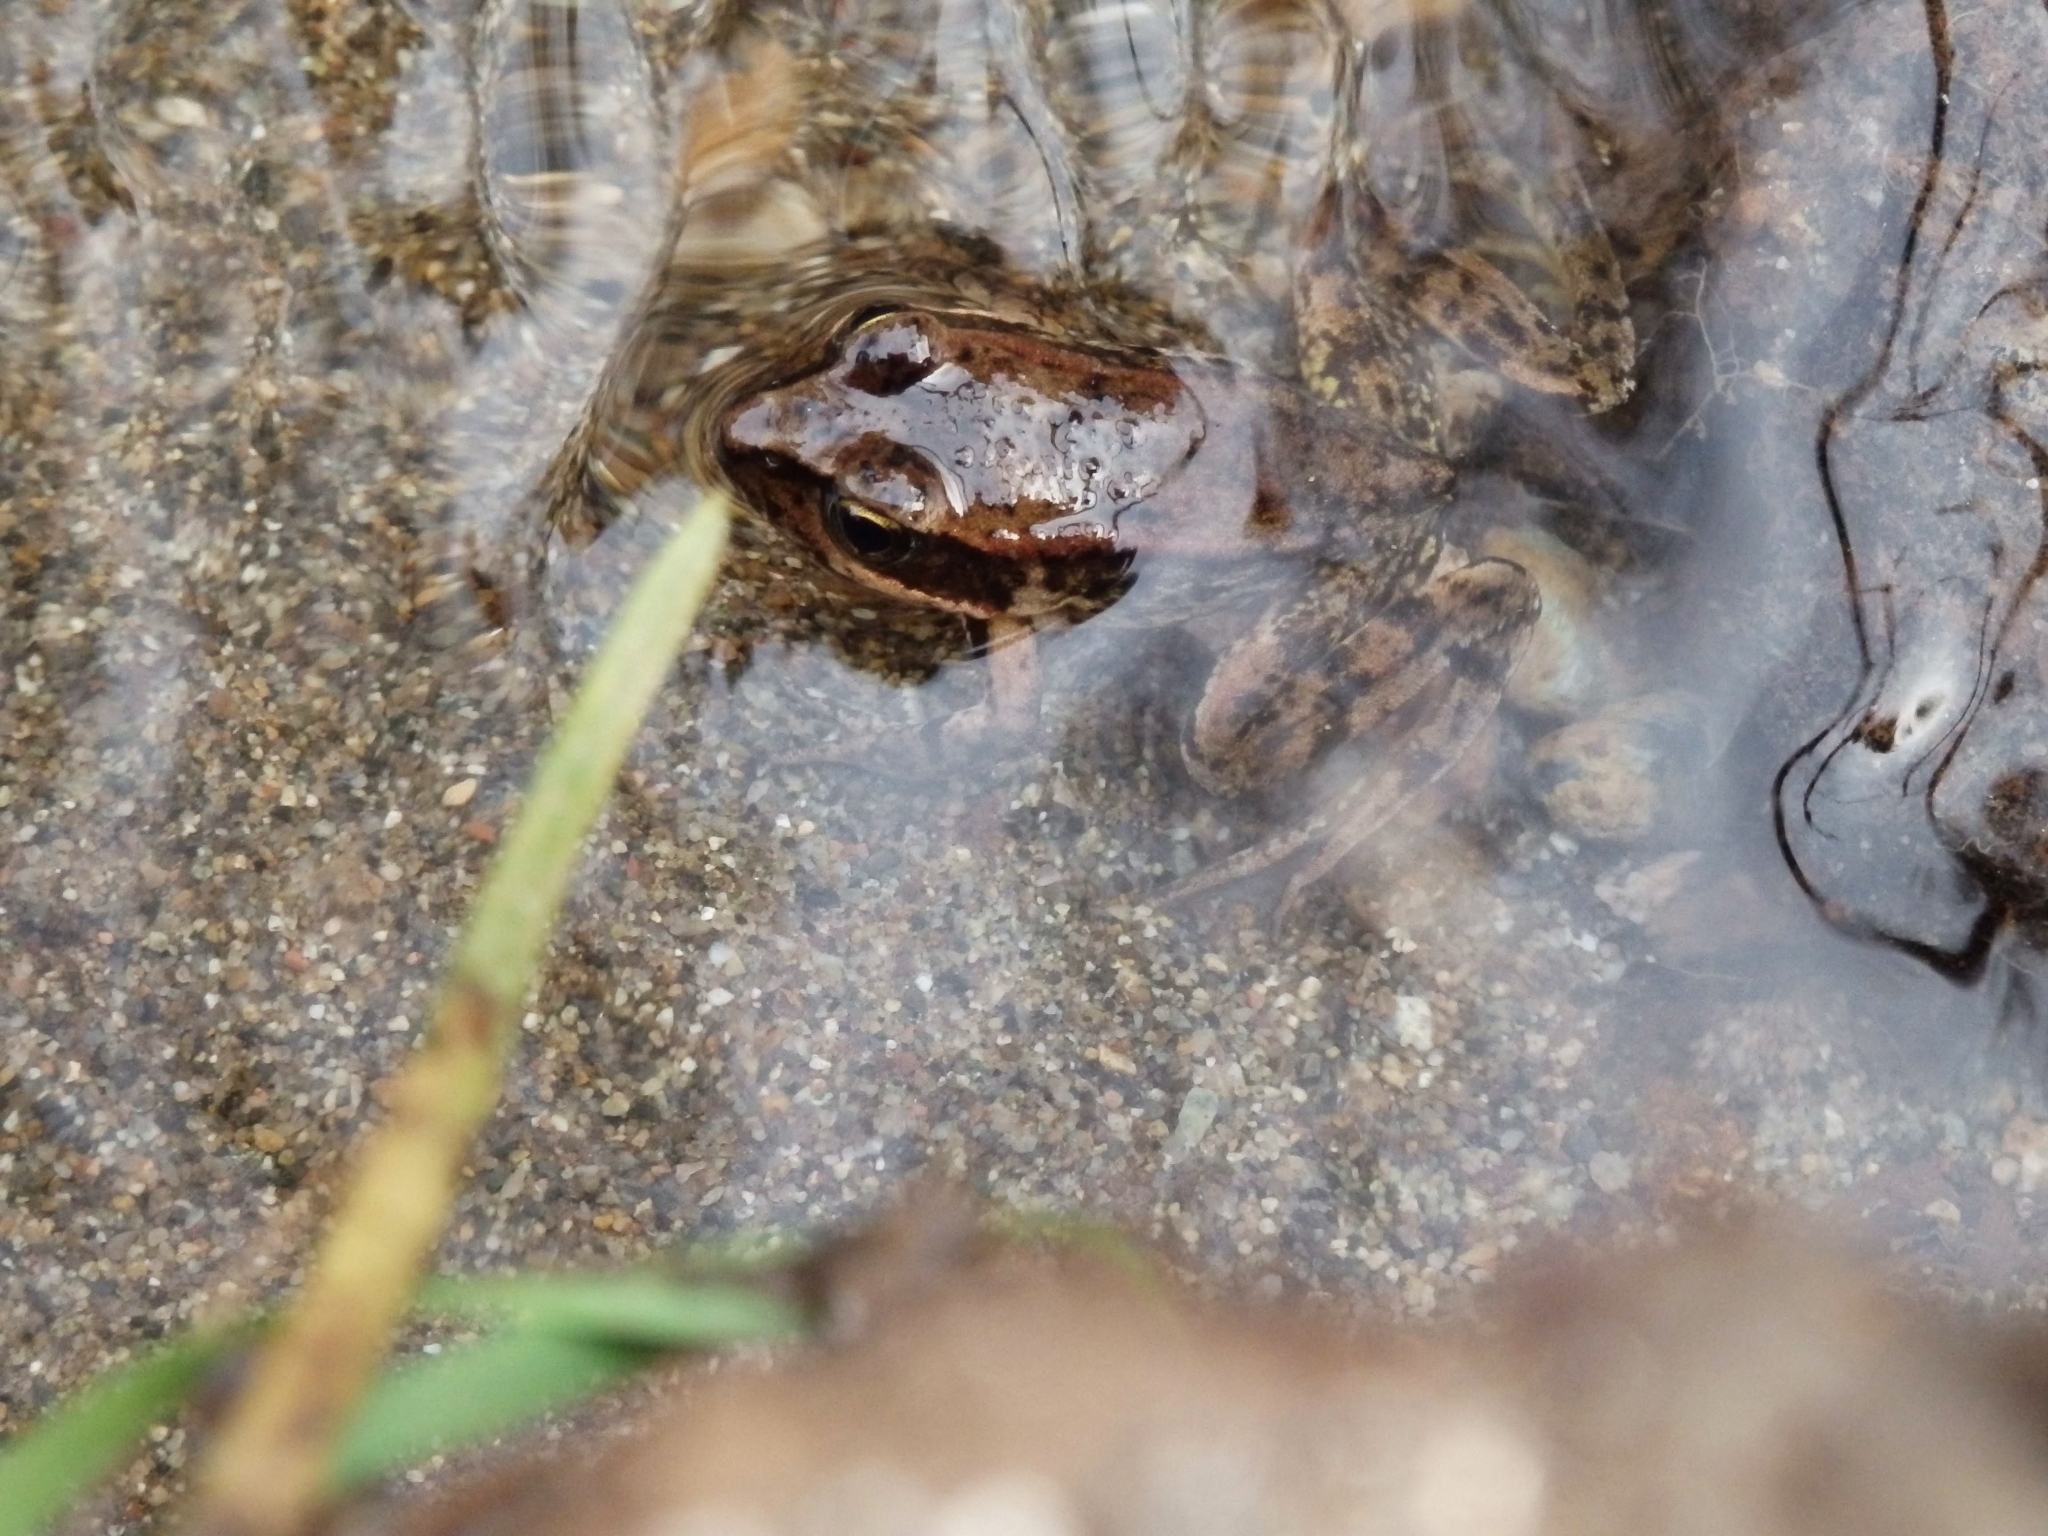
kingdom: Animalia
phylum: Chordata
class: Amphibia
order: Anura
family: Ranidae
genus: Rana
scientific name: Rana aurora
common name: Red-legged frog
